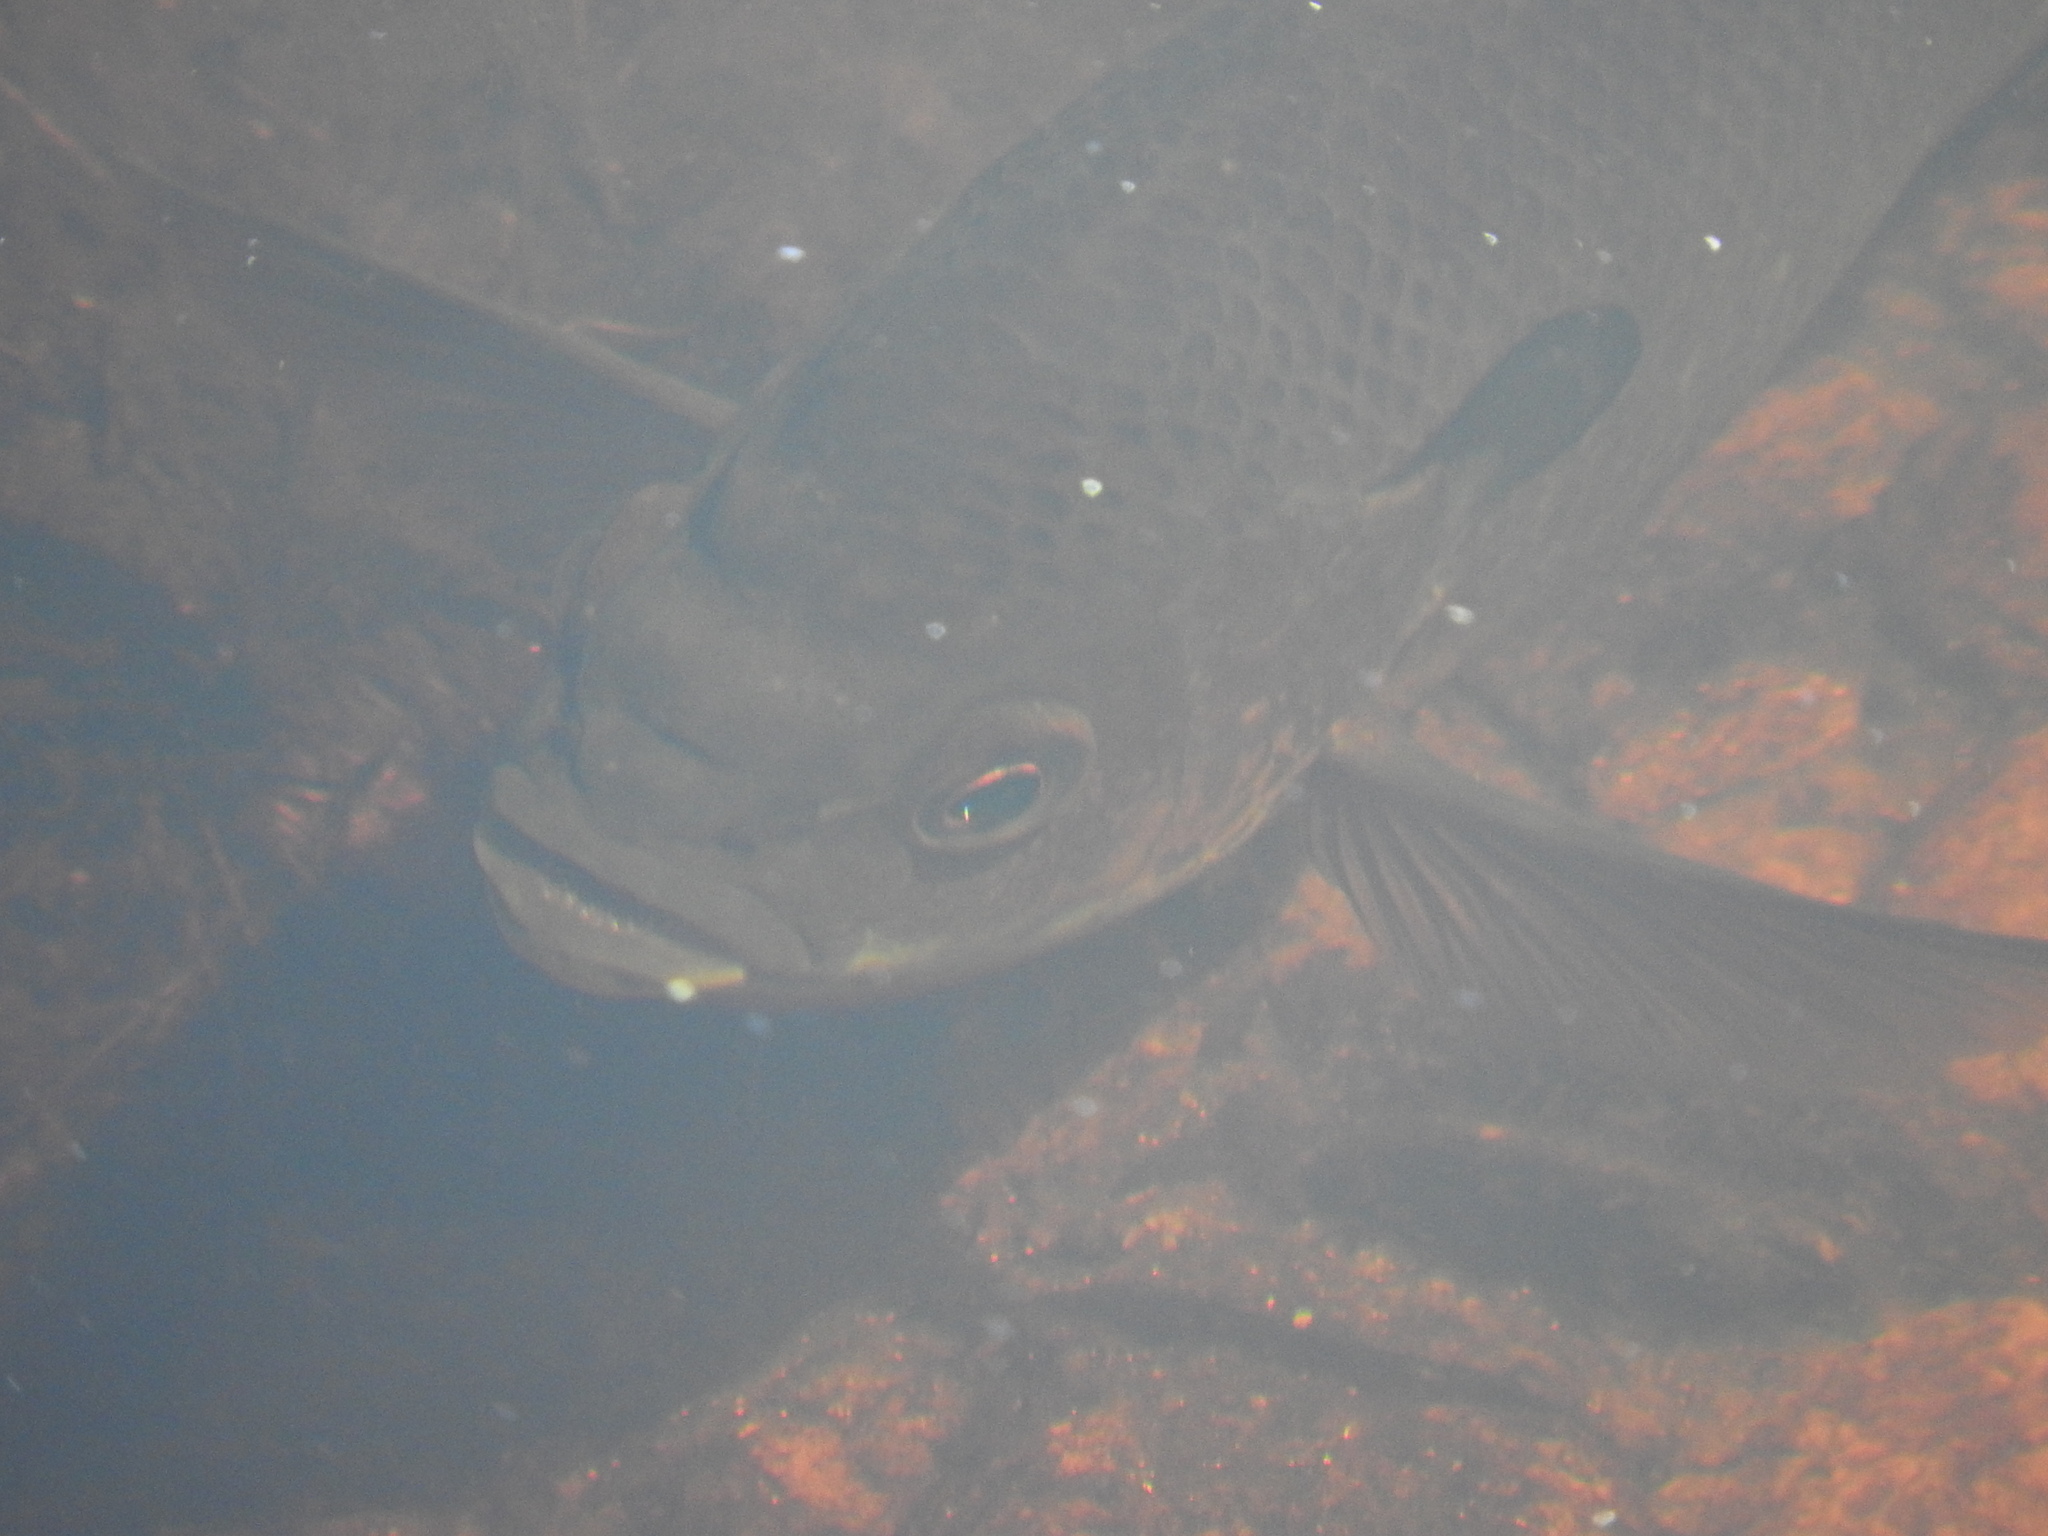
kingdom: Animalia
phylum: Chordata
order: Perciformes
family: Centrarchidae
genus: Lepomis
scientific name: Lepomis macrochirus
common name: Bluegill
